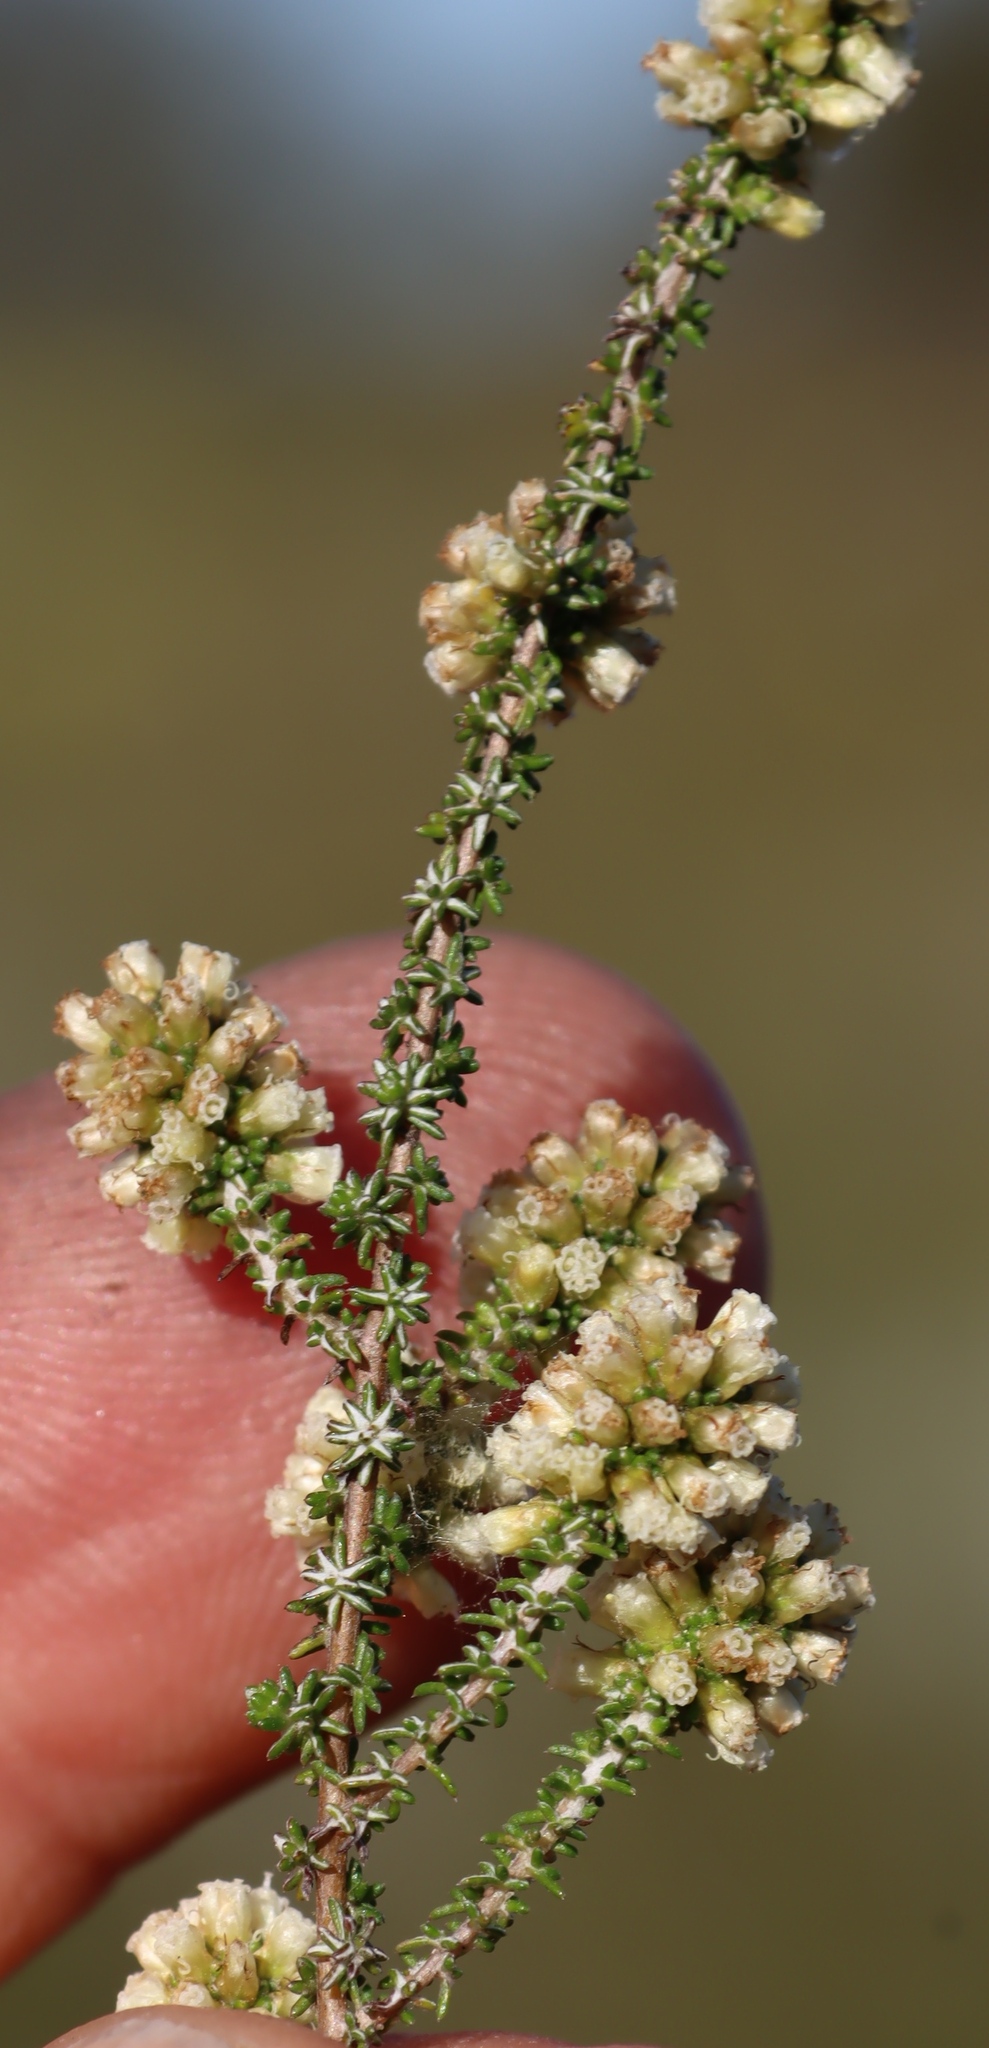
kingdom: Plantae
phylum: Tracheophyta
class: Magnoliopsida
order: Asterales
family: Asteraceae
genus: Ifloga
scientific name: Ifloga repens
